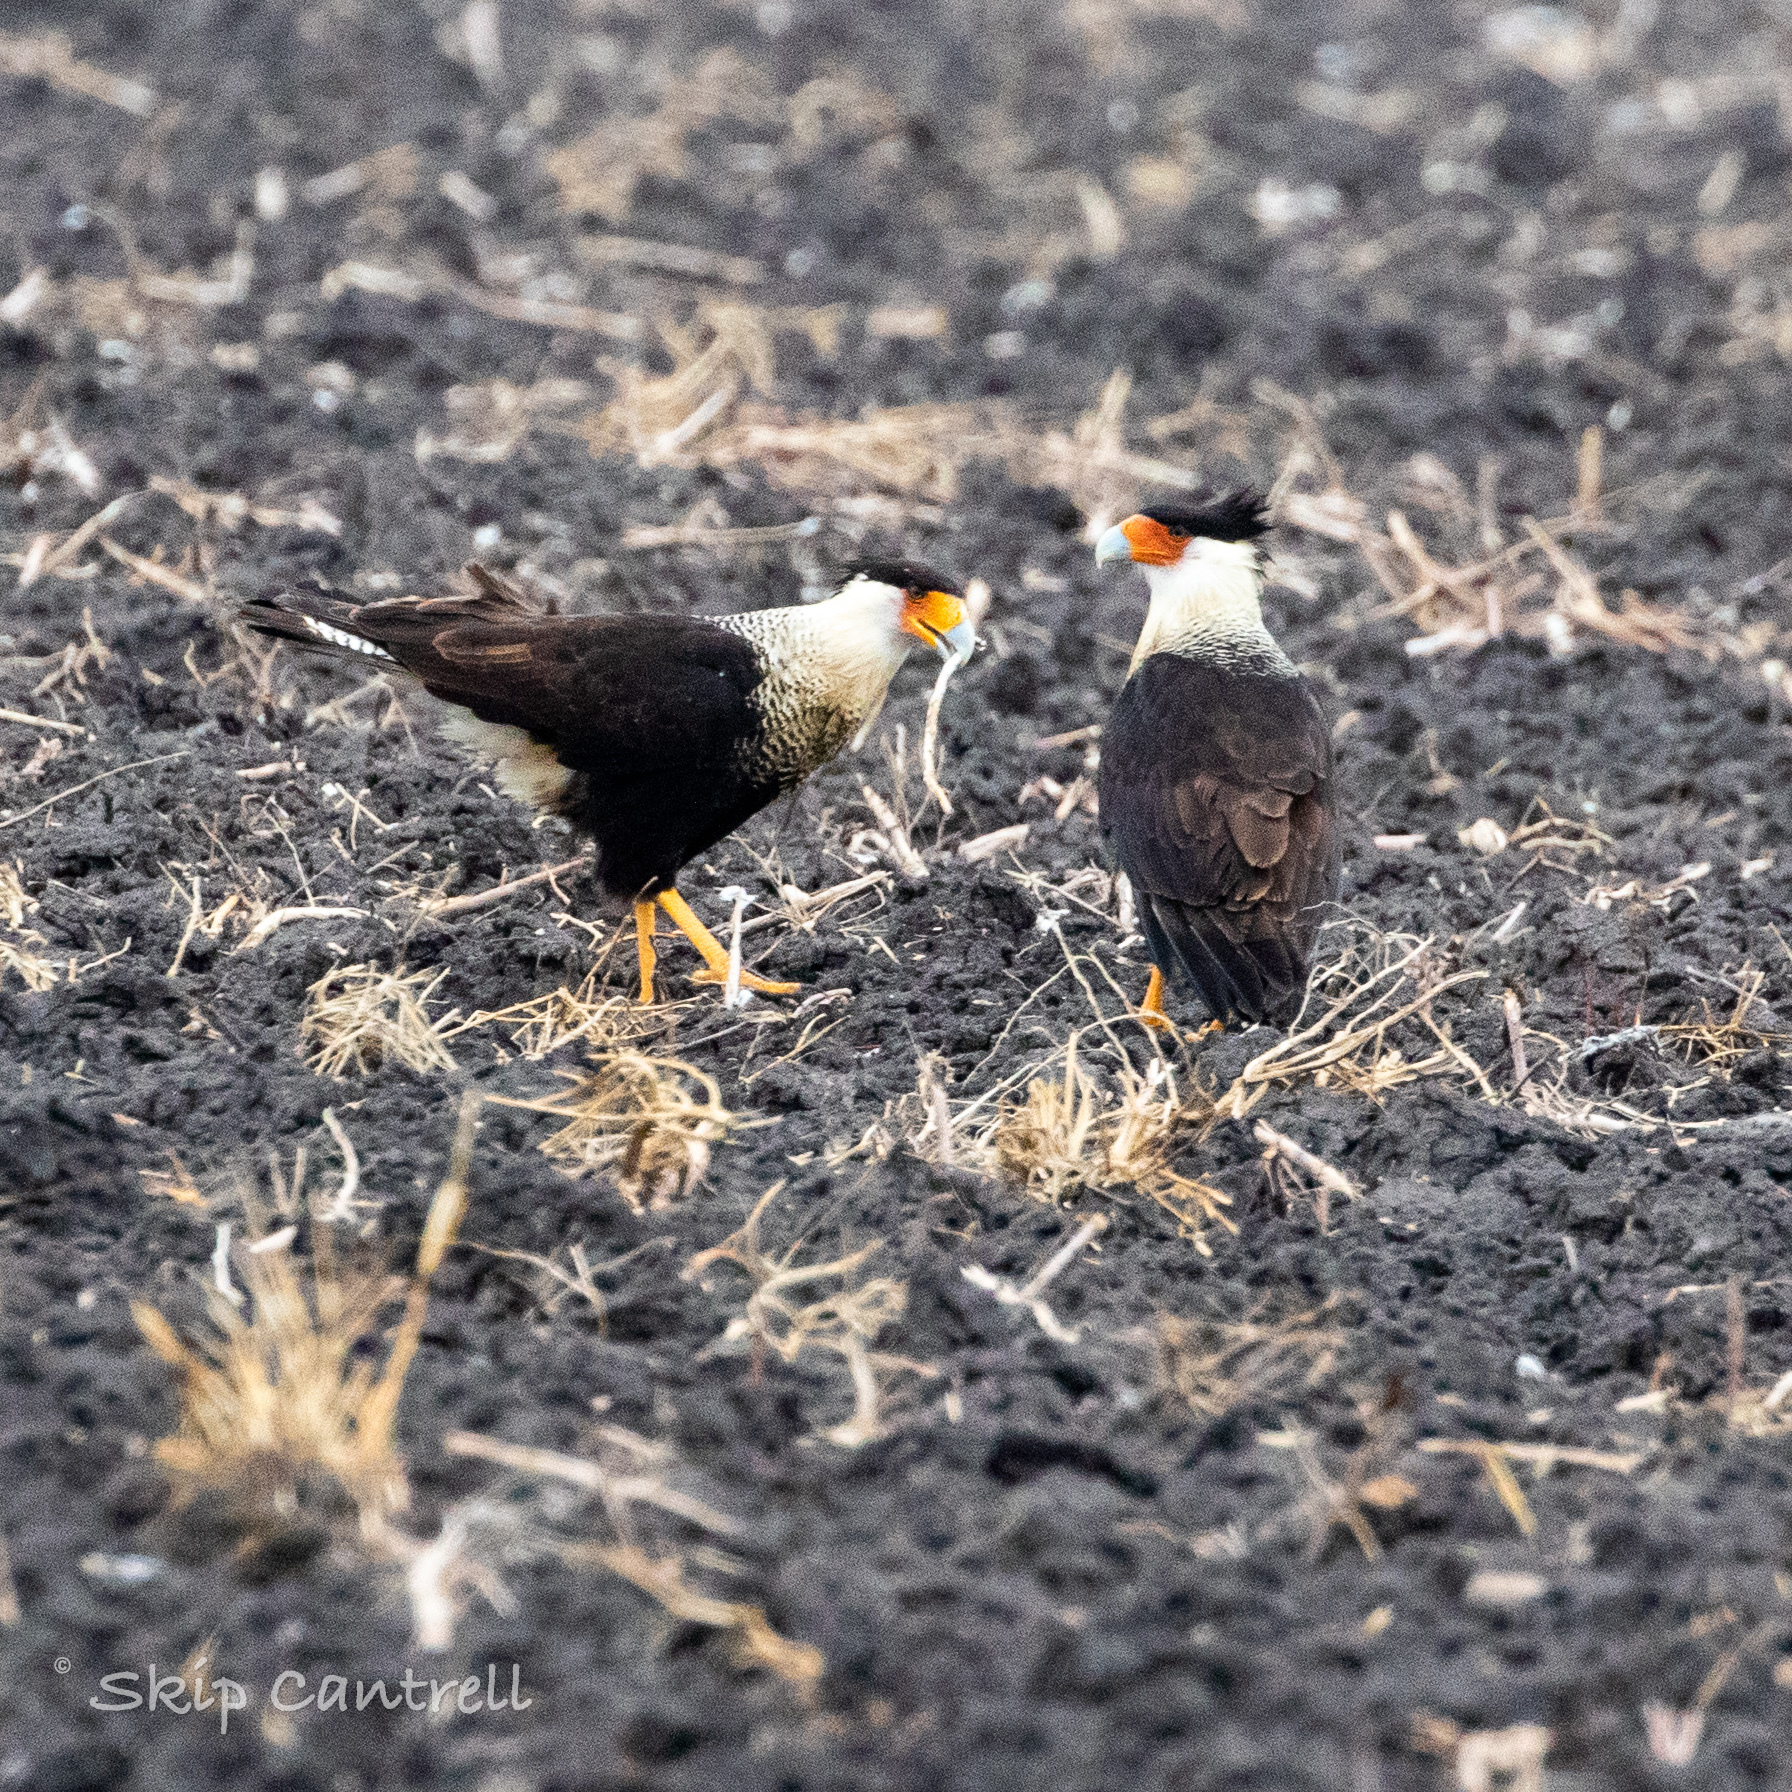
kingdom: Animalia
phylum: Chordata
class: Aves
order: Falconiformes
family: Falconidae
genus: Caracara
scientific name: Caracara plancus
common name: Southern caracara
